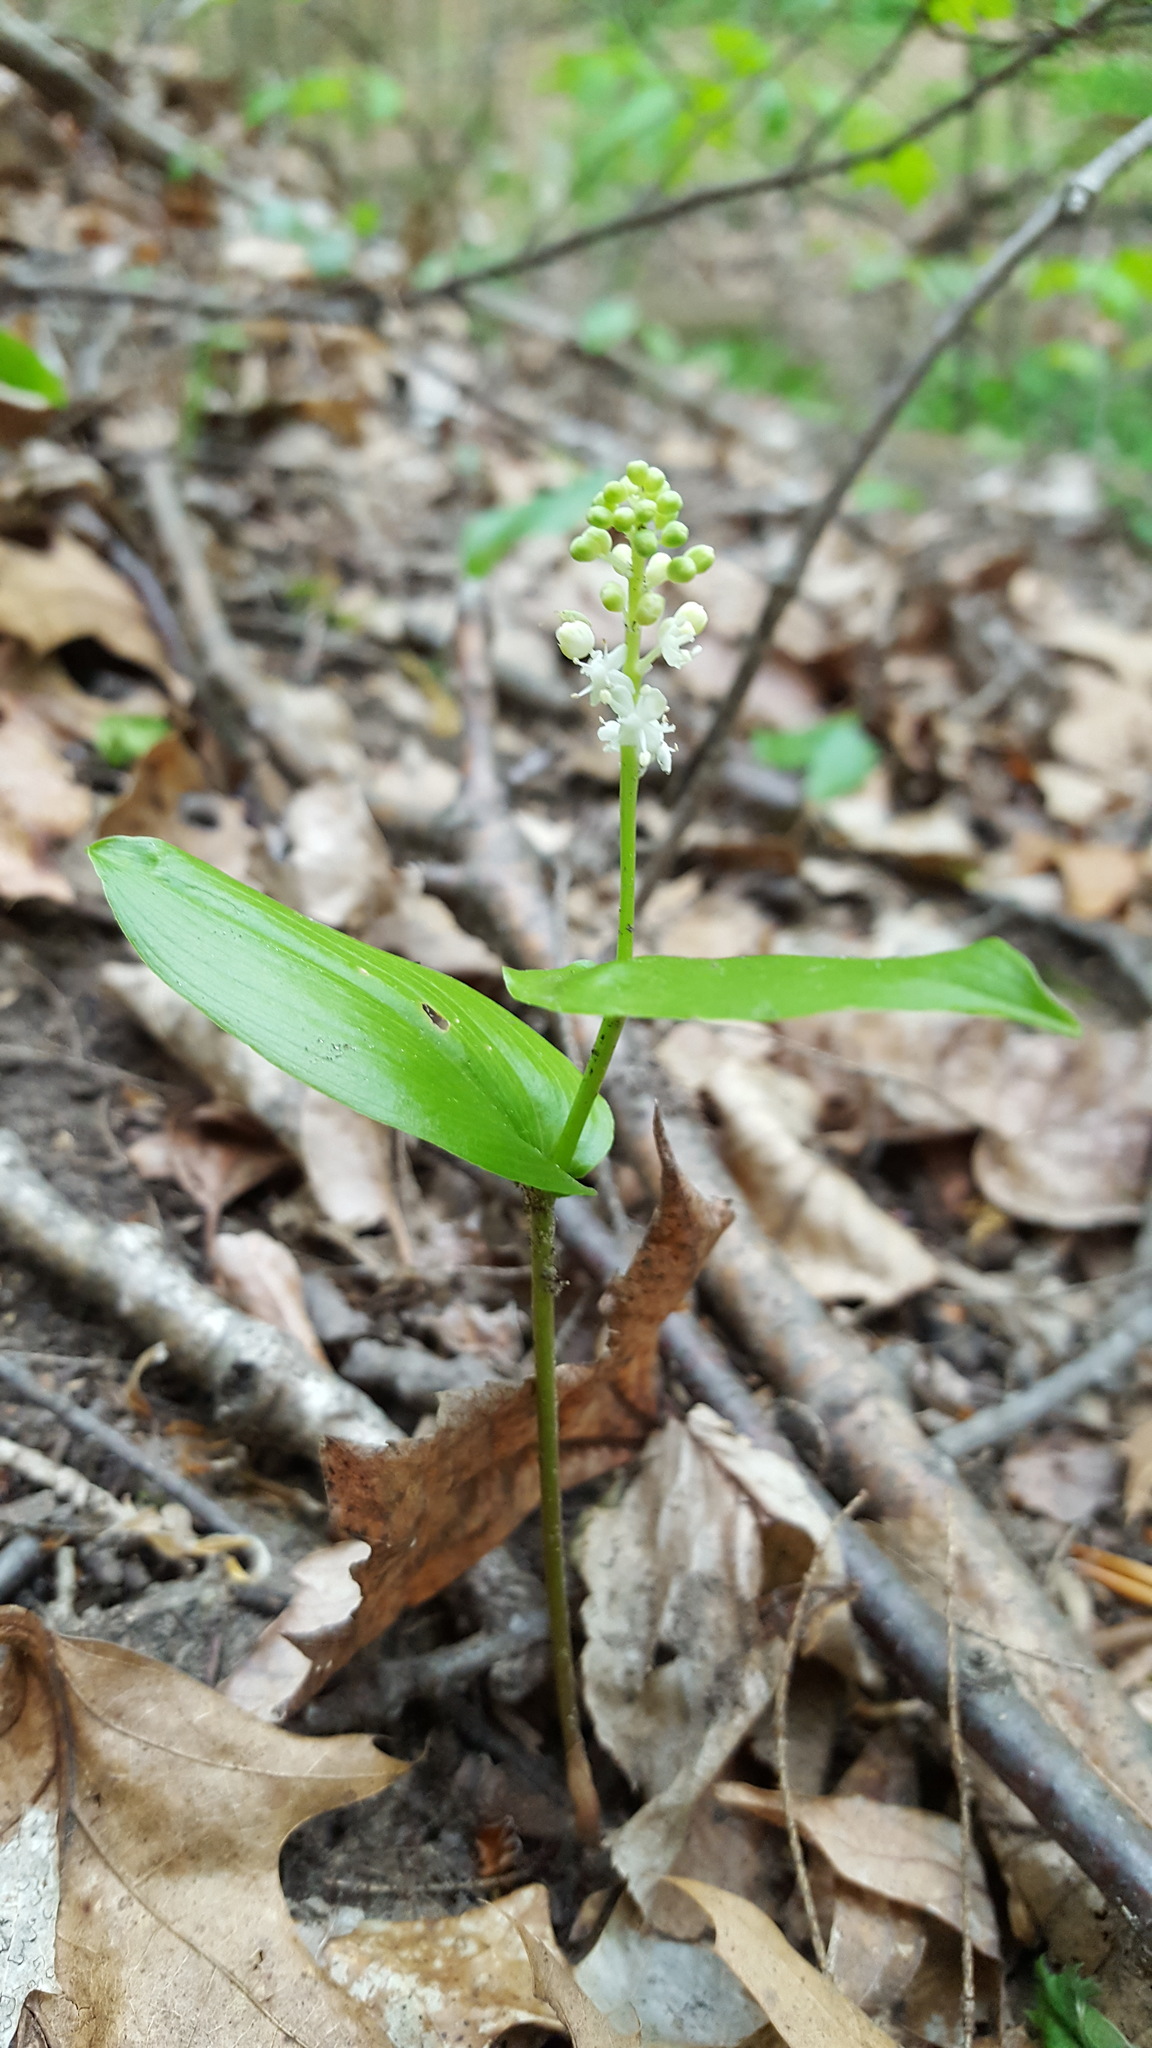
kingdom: Plantae
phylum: Tracheophyta
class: Liliopsida
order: Asparagales
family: Asparagaceae
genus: Maianthemum
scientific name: Maianthemum canadense
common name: False lily-of-the-valley
